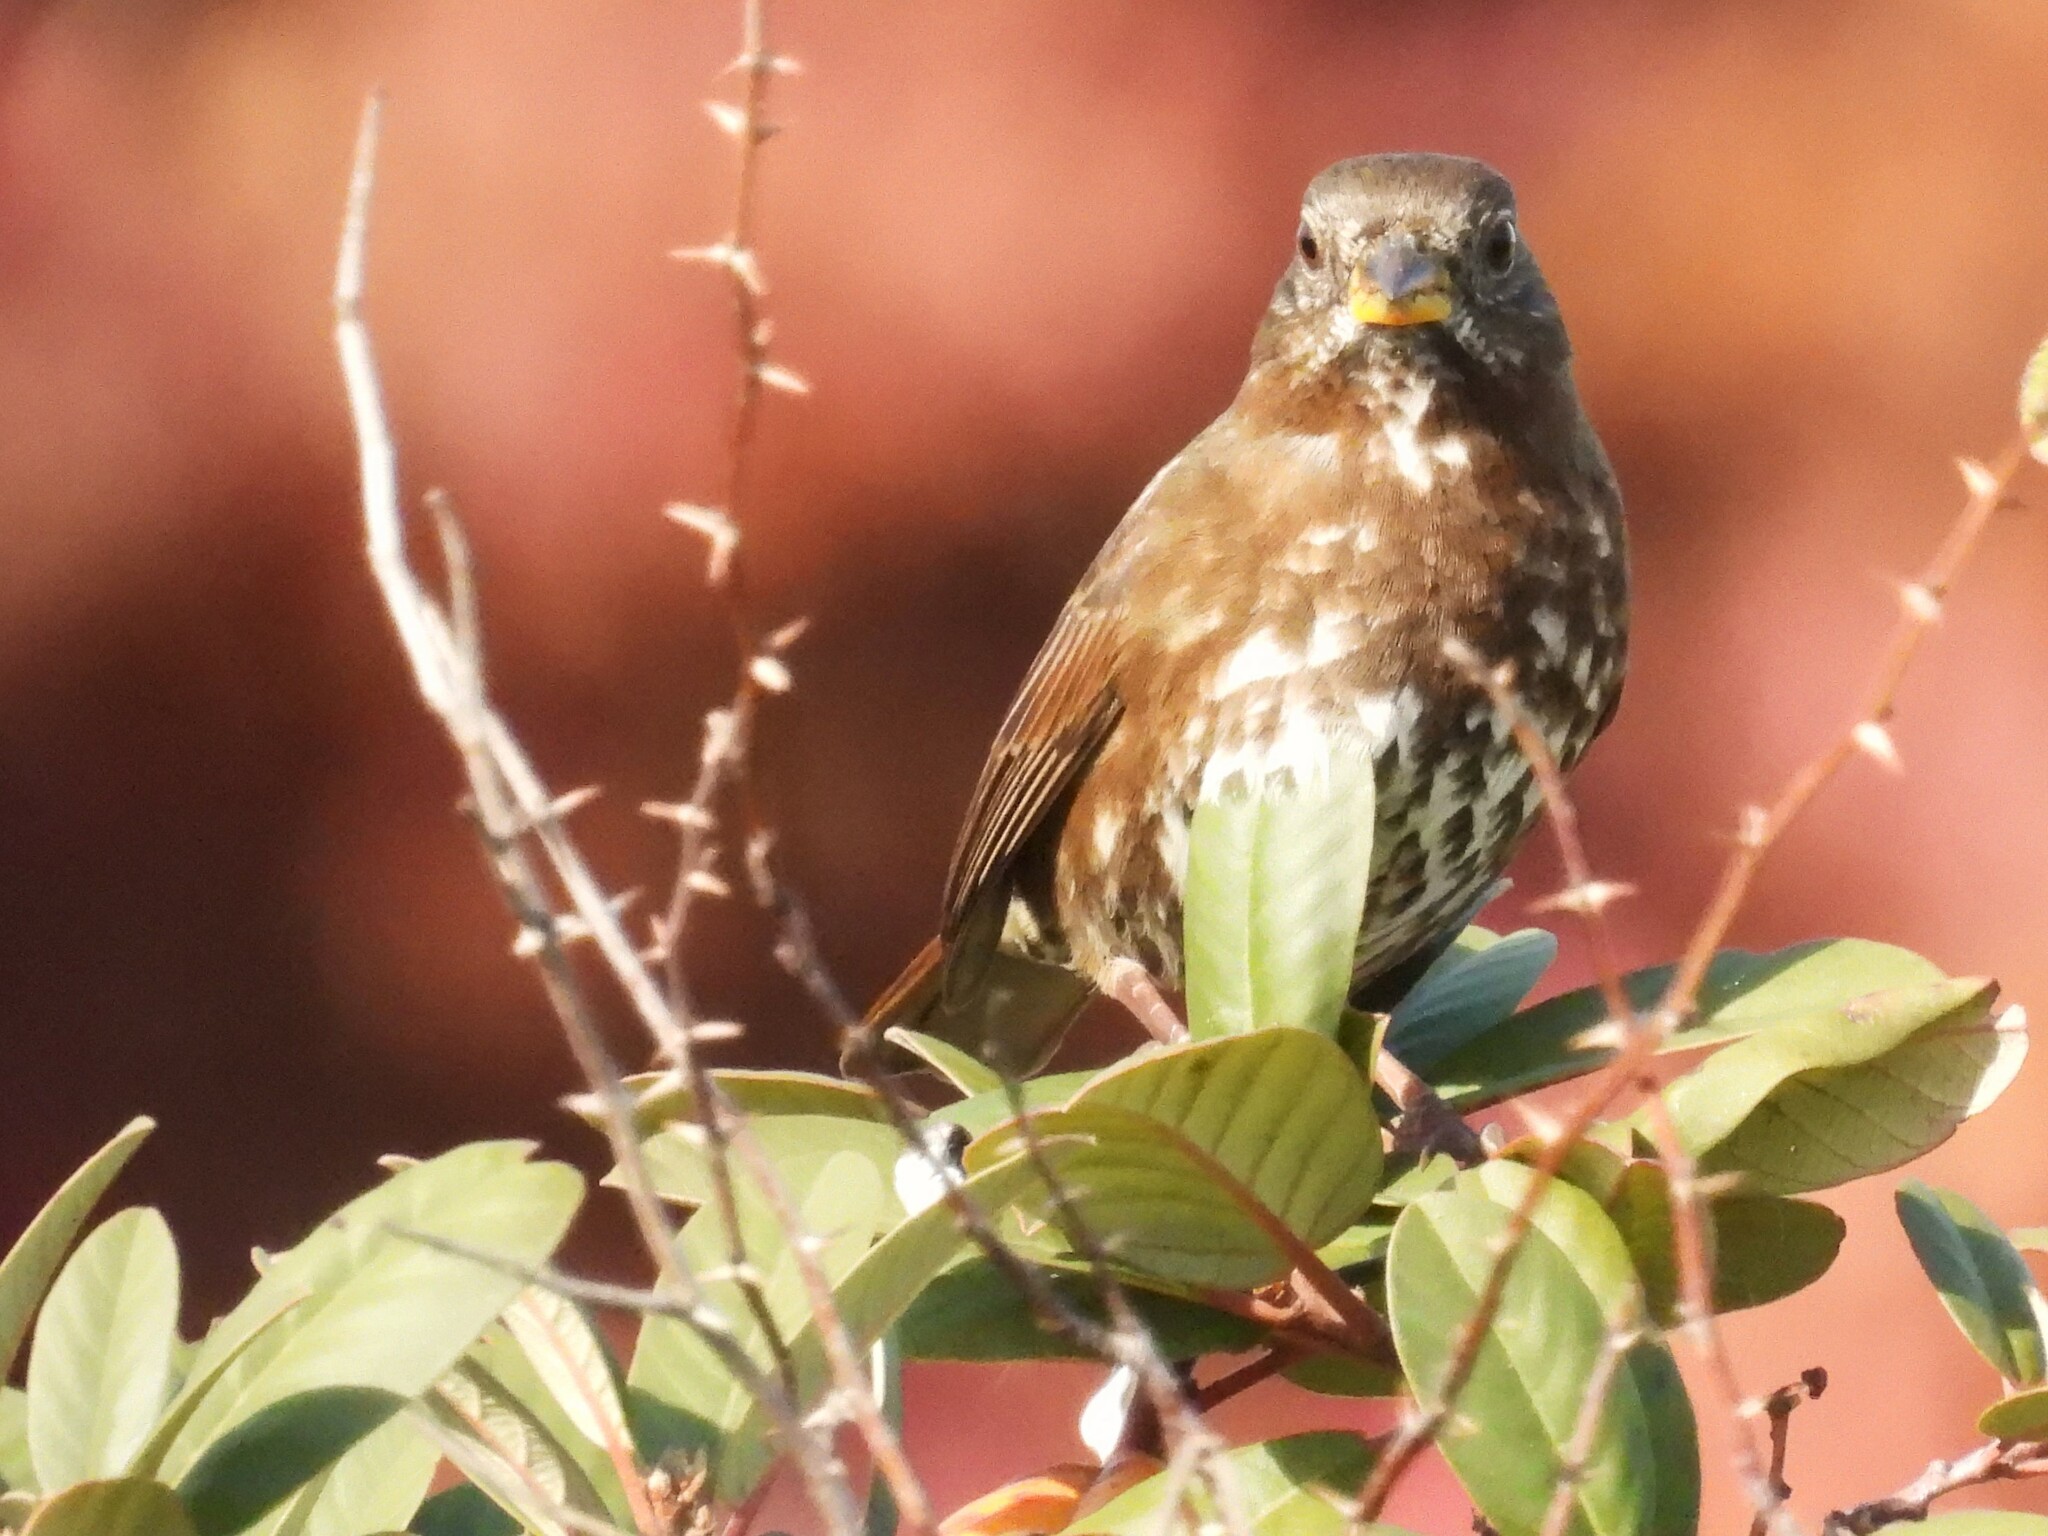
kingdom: Animalia
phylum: Chordata
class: Aves
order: Passeriformes
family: Passerellidae
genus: Passerella
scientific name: Passerella iliaca
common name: Fox sparrow
